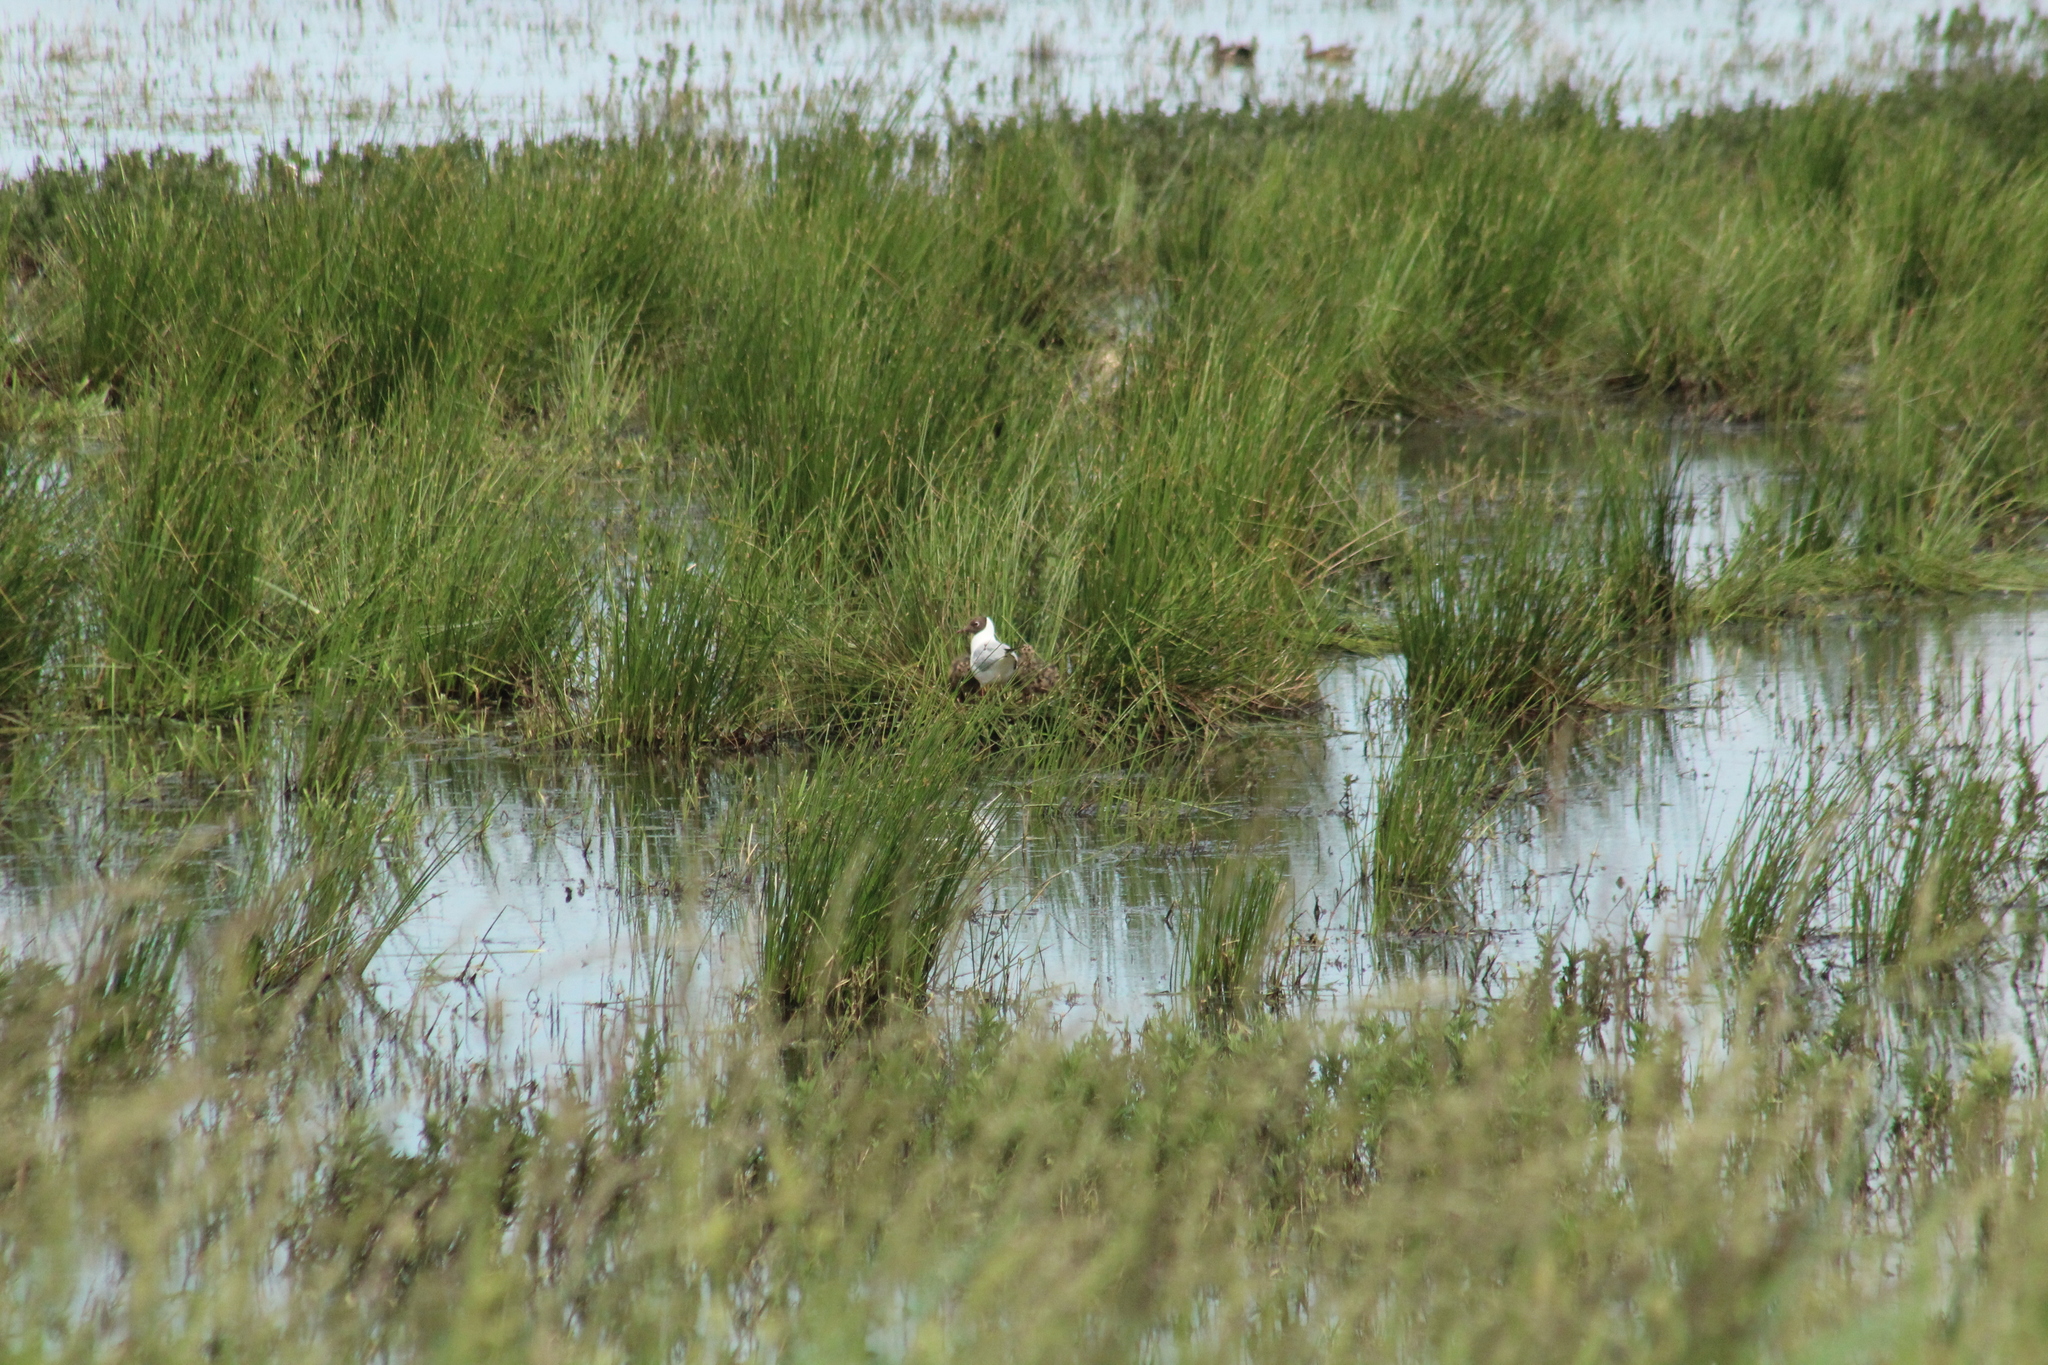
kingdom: Animalia
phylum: Chordata
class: Aves
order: Charadriiformes
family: Laridae
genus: Chroicocephalus
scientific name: Chroicocephalus ridibundus
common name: Black-headed gull
